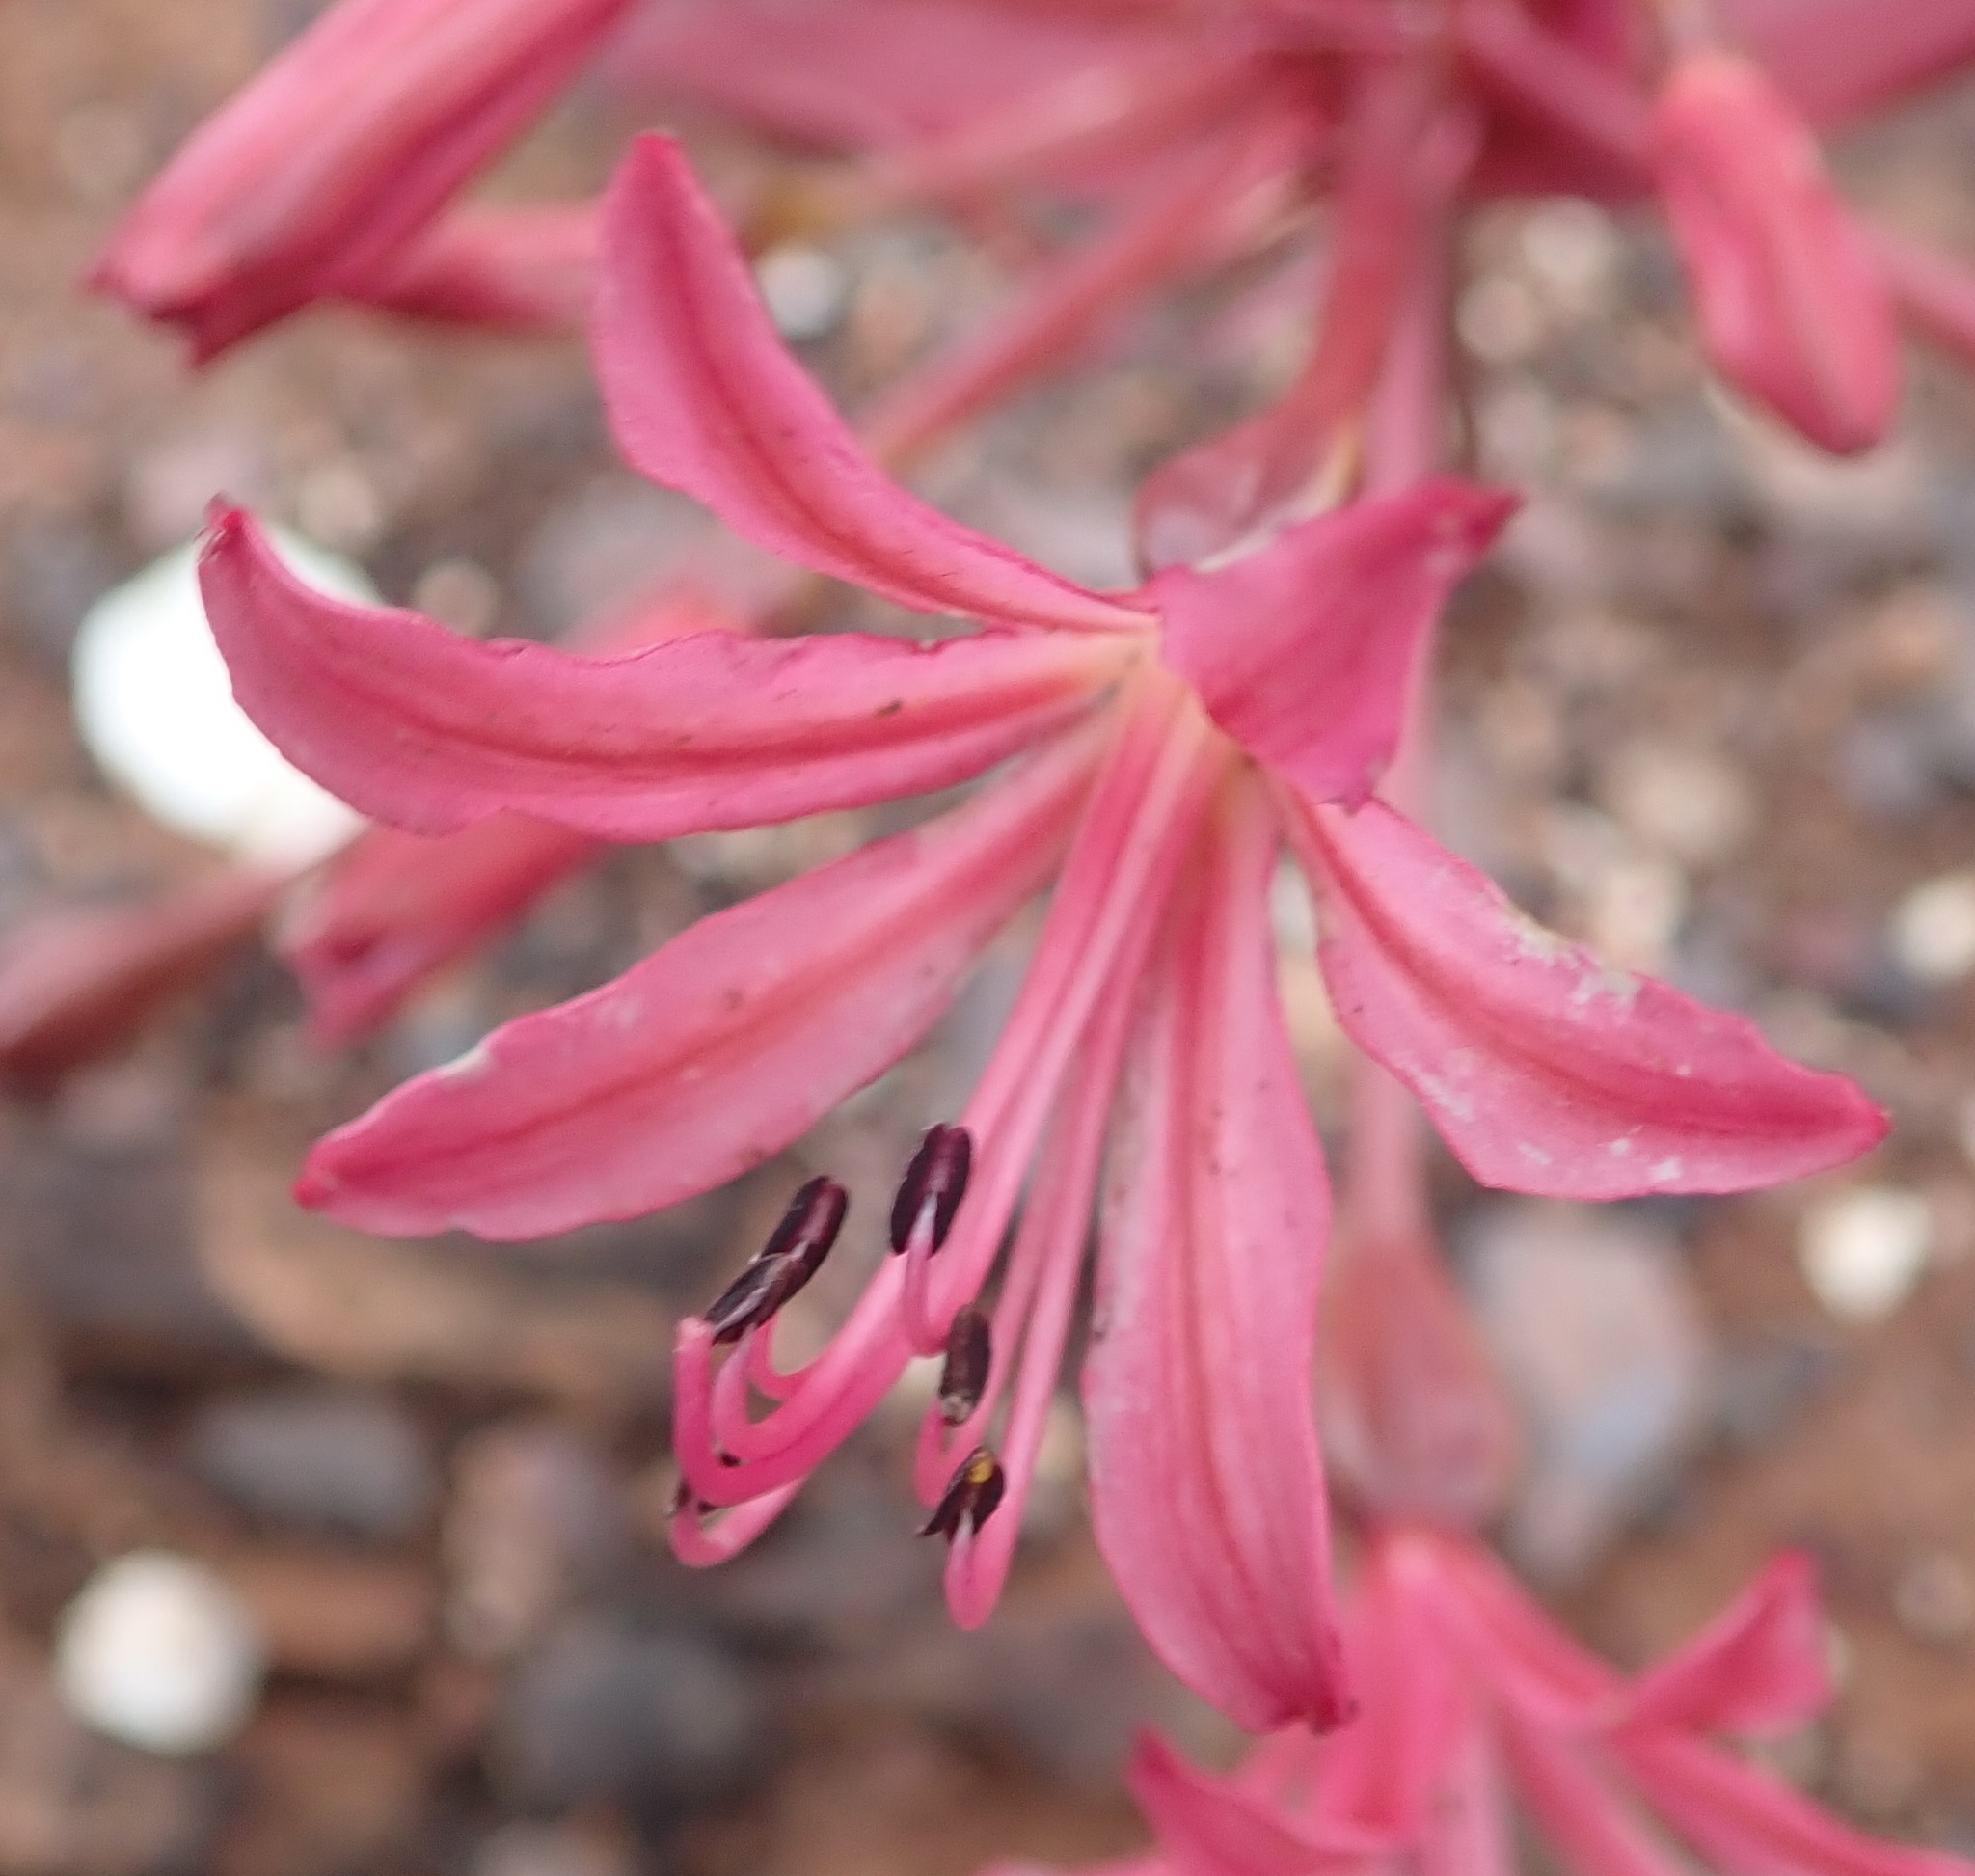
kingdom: Plantae
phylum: Tracheophyta
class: Liliopsida
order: Asparagales
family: Amaryllidaceae
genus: Brunsvigia
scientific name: Brunsvigia nervosa
